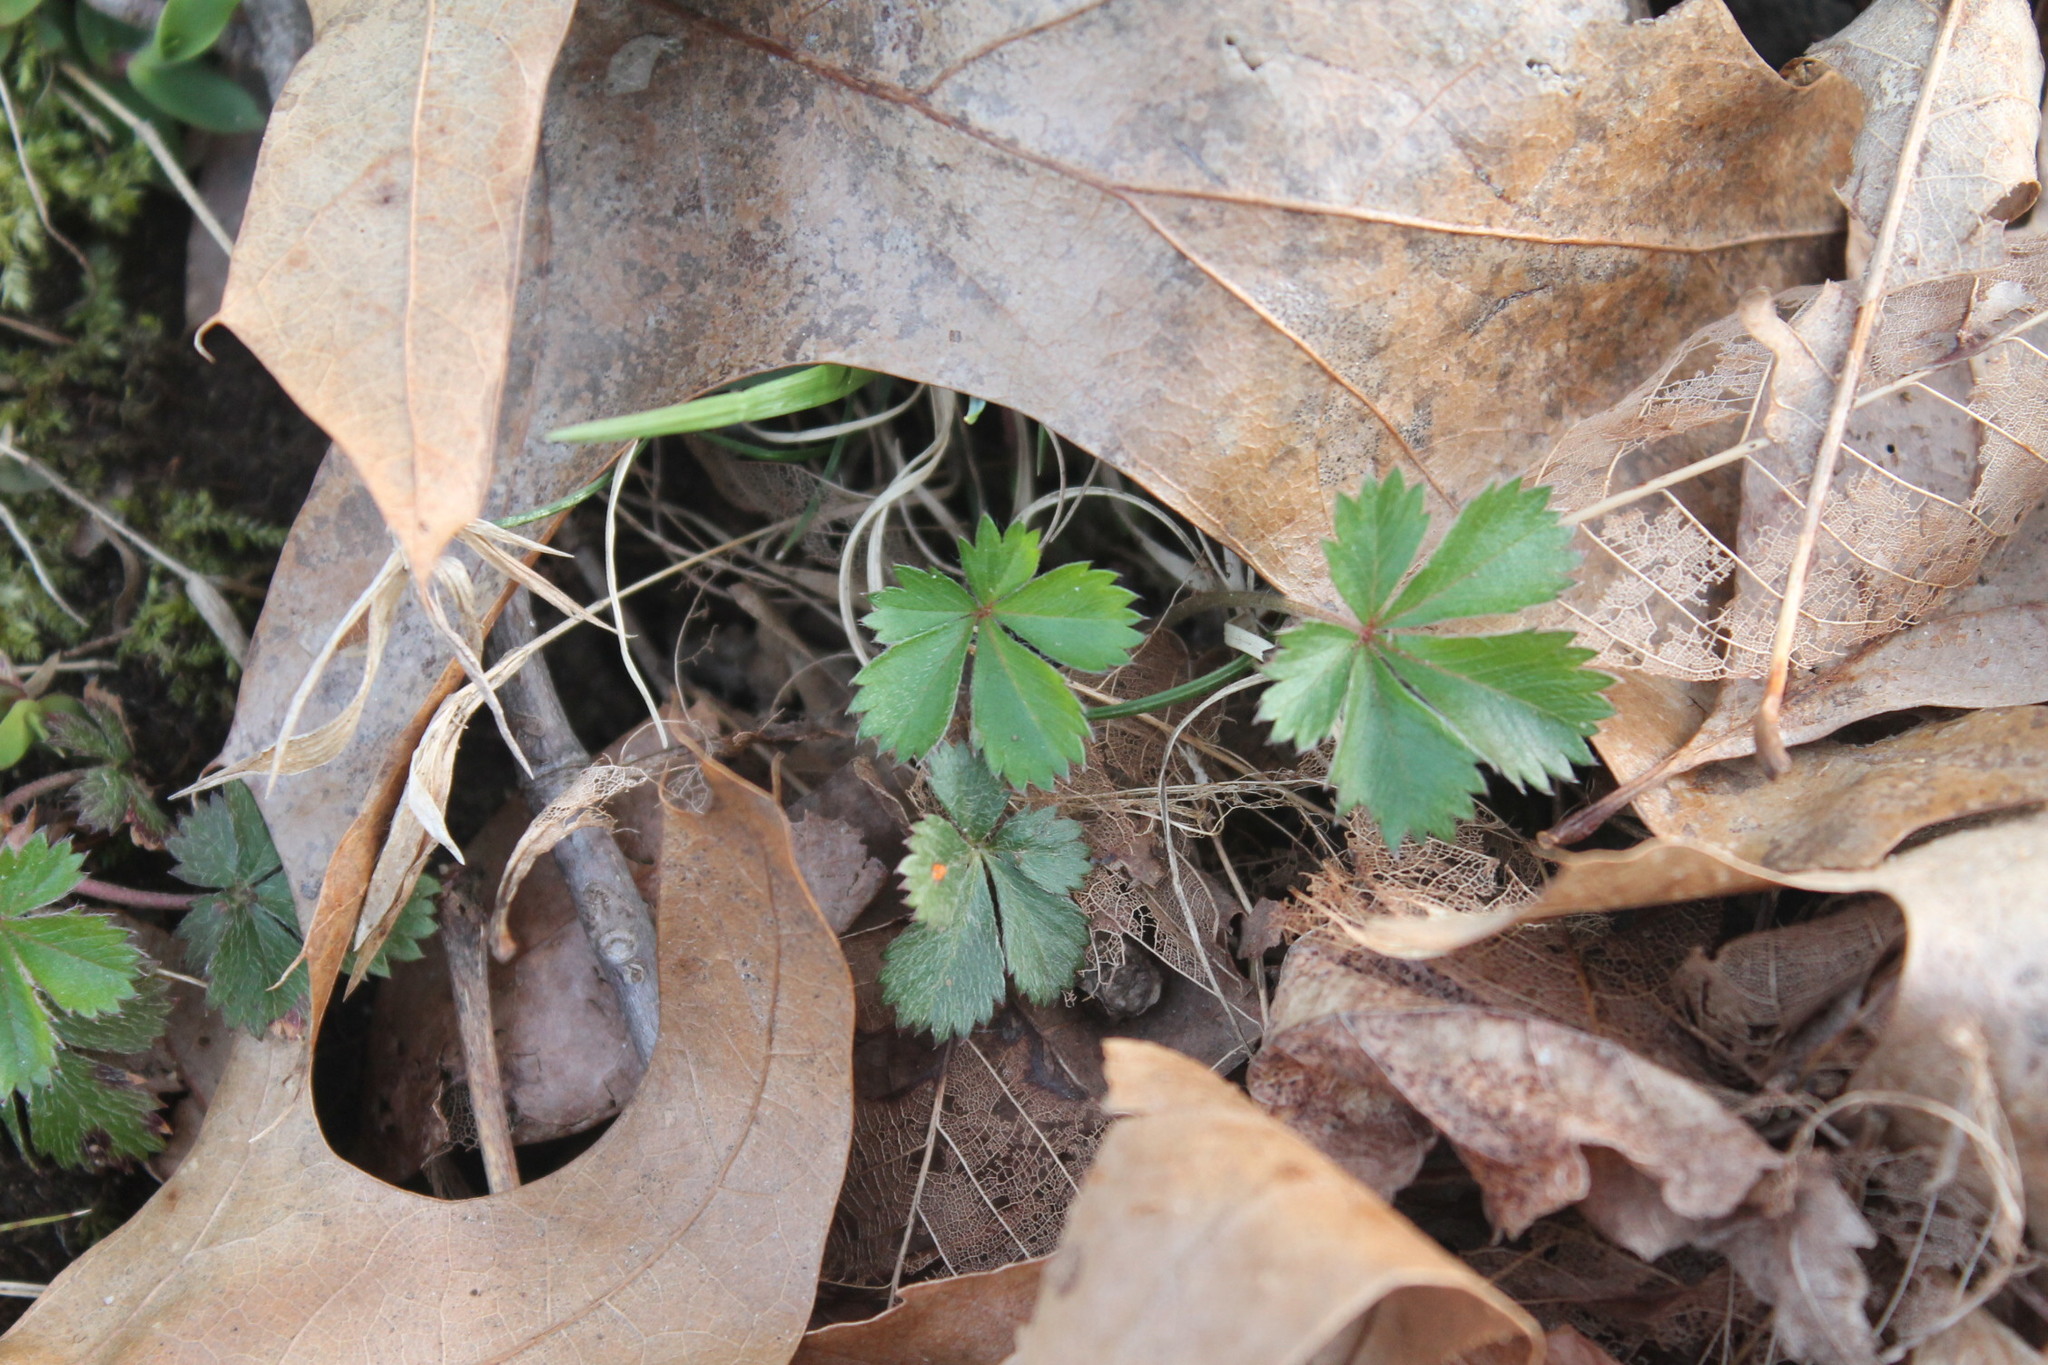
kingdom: Plantae
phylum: Tracheophyta
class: Magnoliopsida
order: Rosales
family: Rosaceae
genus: Potentilla
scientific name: Potentilla canadensis
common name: Canada cinquefoil
